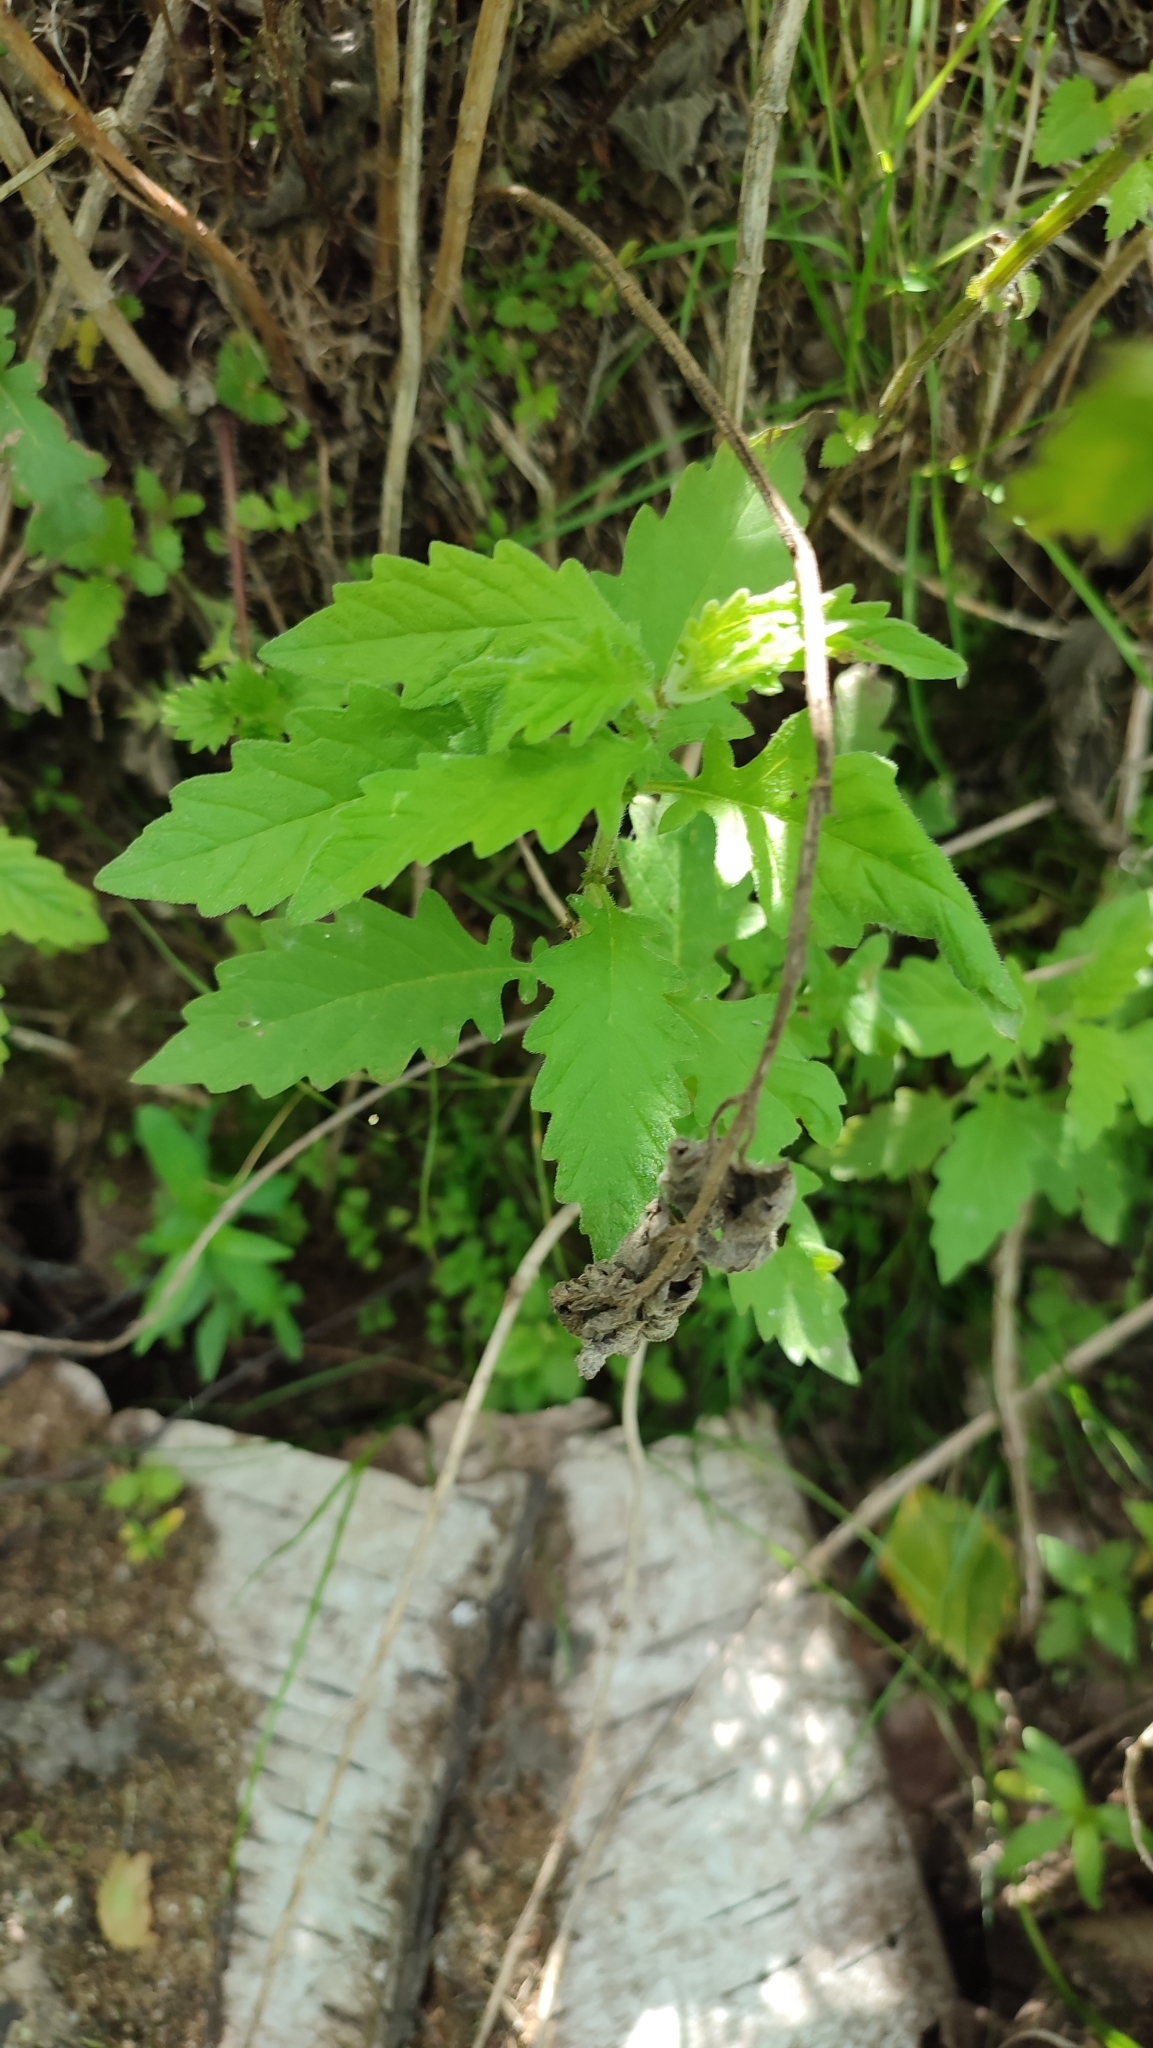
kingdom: Plantae
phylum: Tracheophyta
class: Magnoliopsida
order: Lamiales
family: Lamiaceae
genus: Lycopus
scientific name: Lycopus europaeus
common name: European bugleweed
